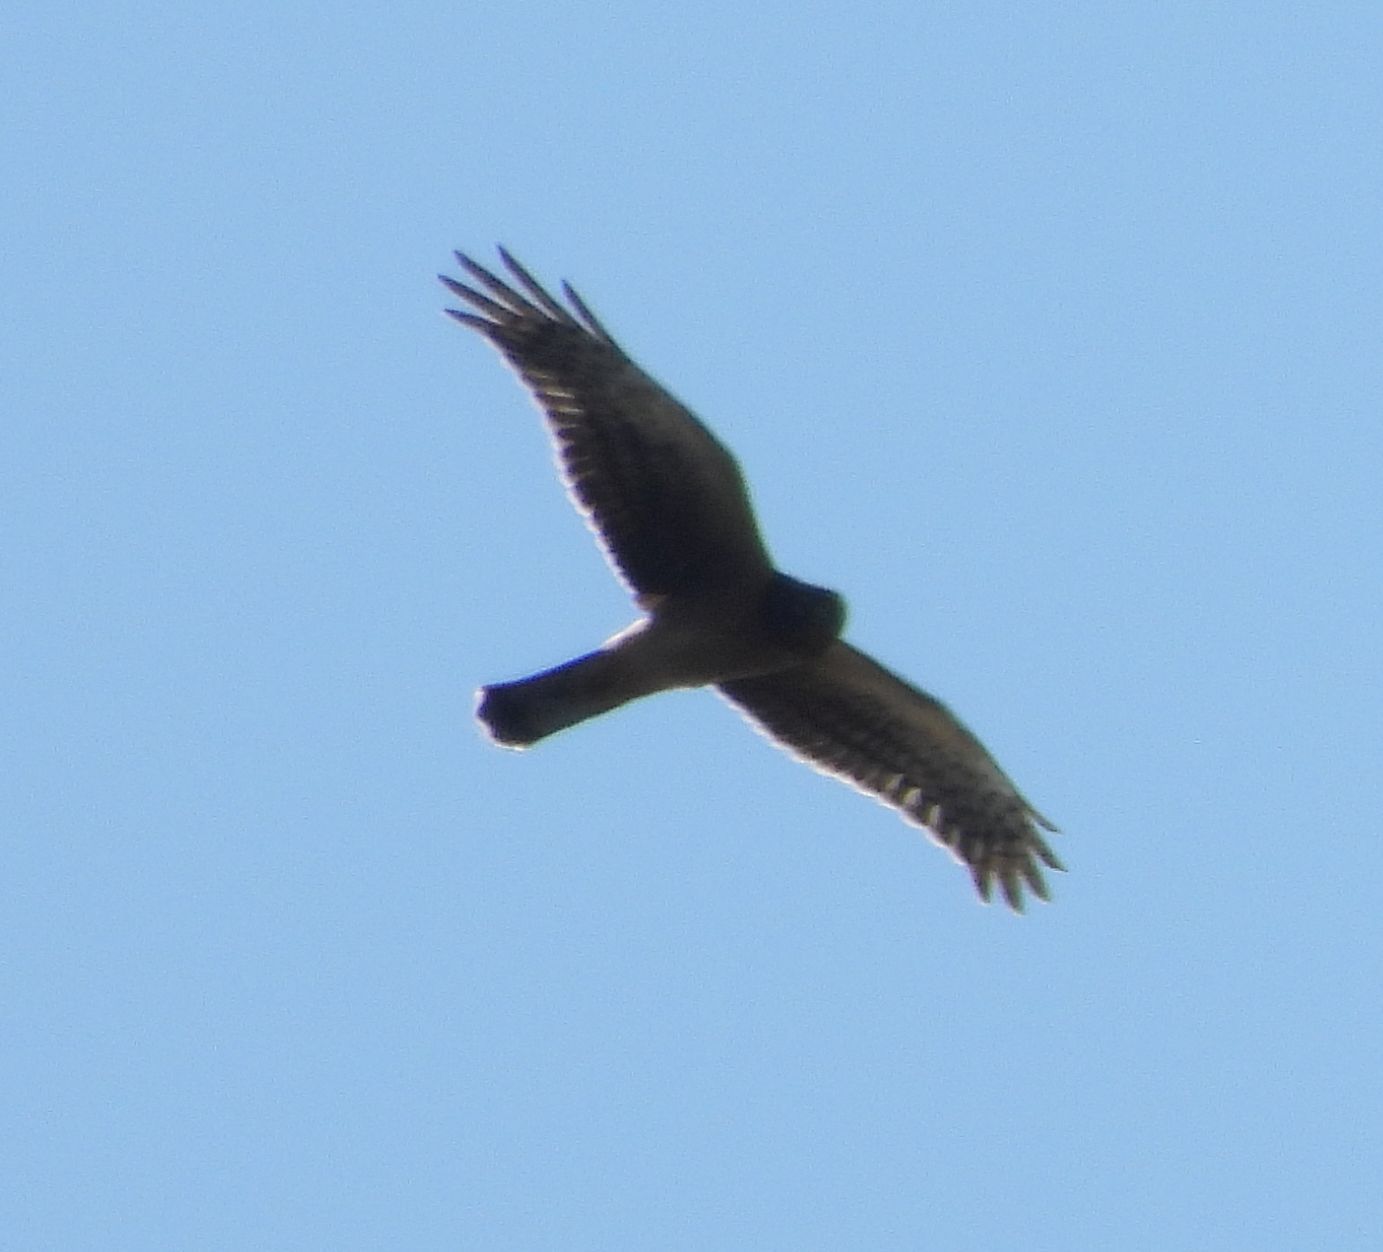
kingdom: Animalia
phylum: Chordata
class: Aves
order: Accipitriformes
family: Accipitridae
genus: Circus
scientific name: Circus cyaneus
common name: Hen harrier
